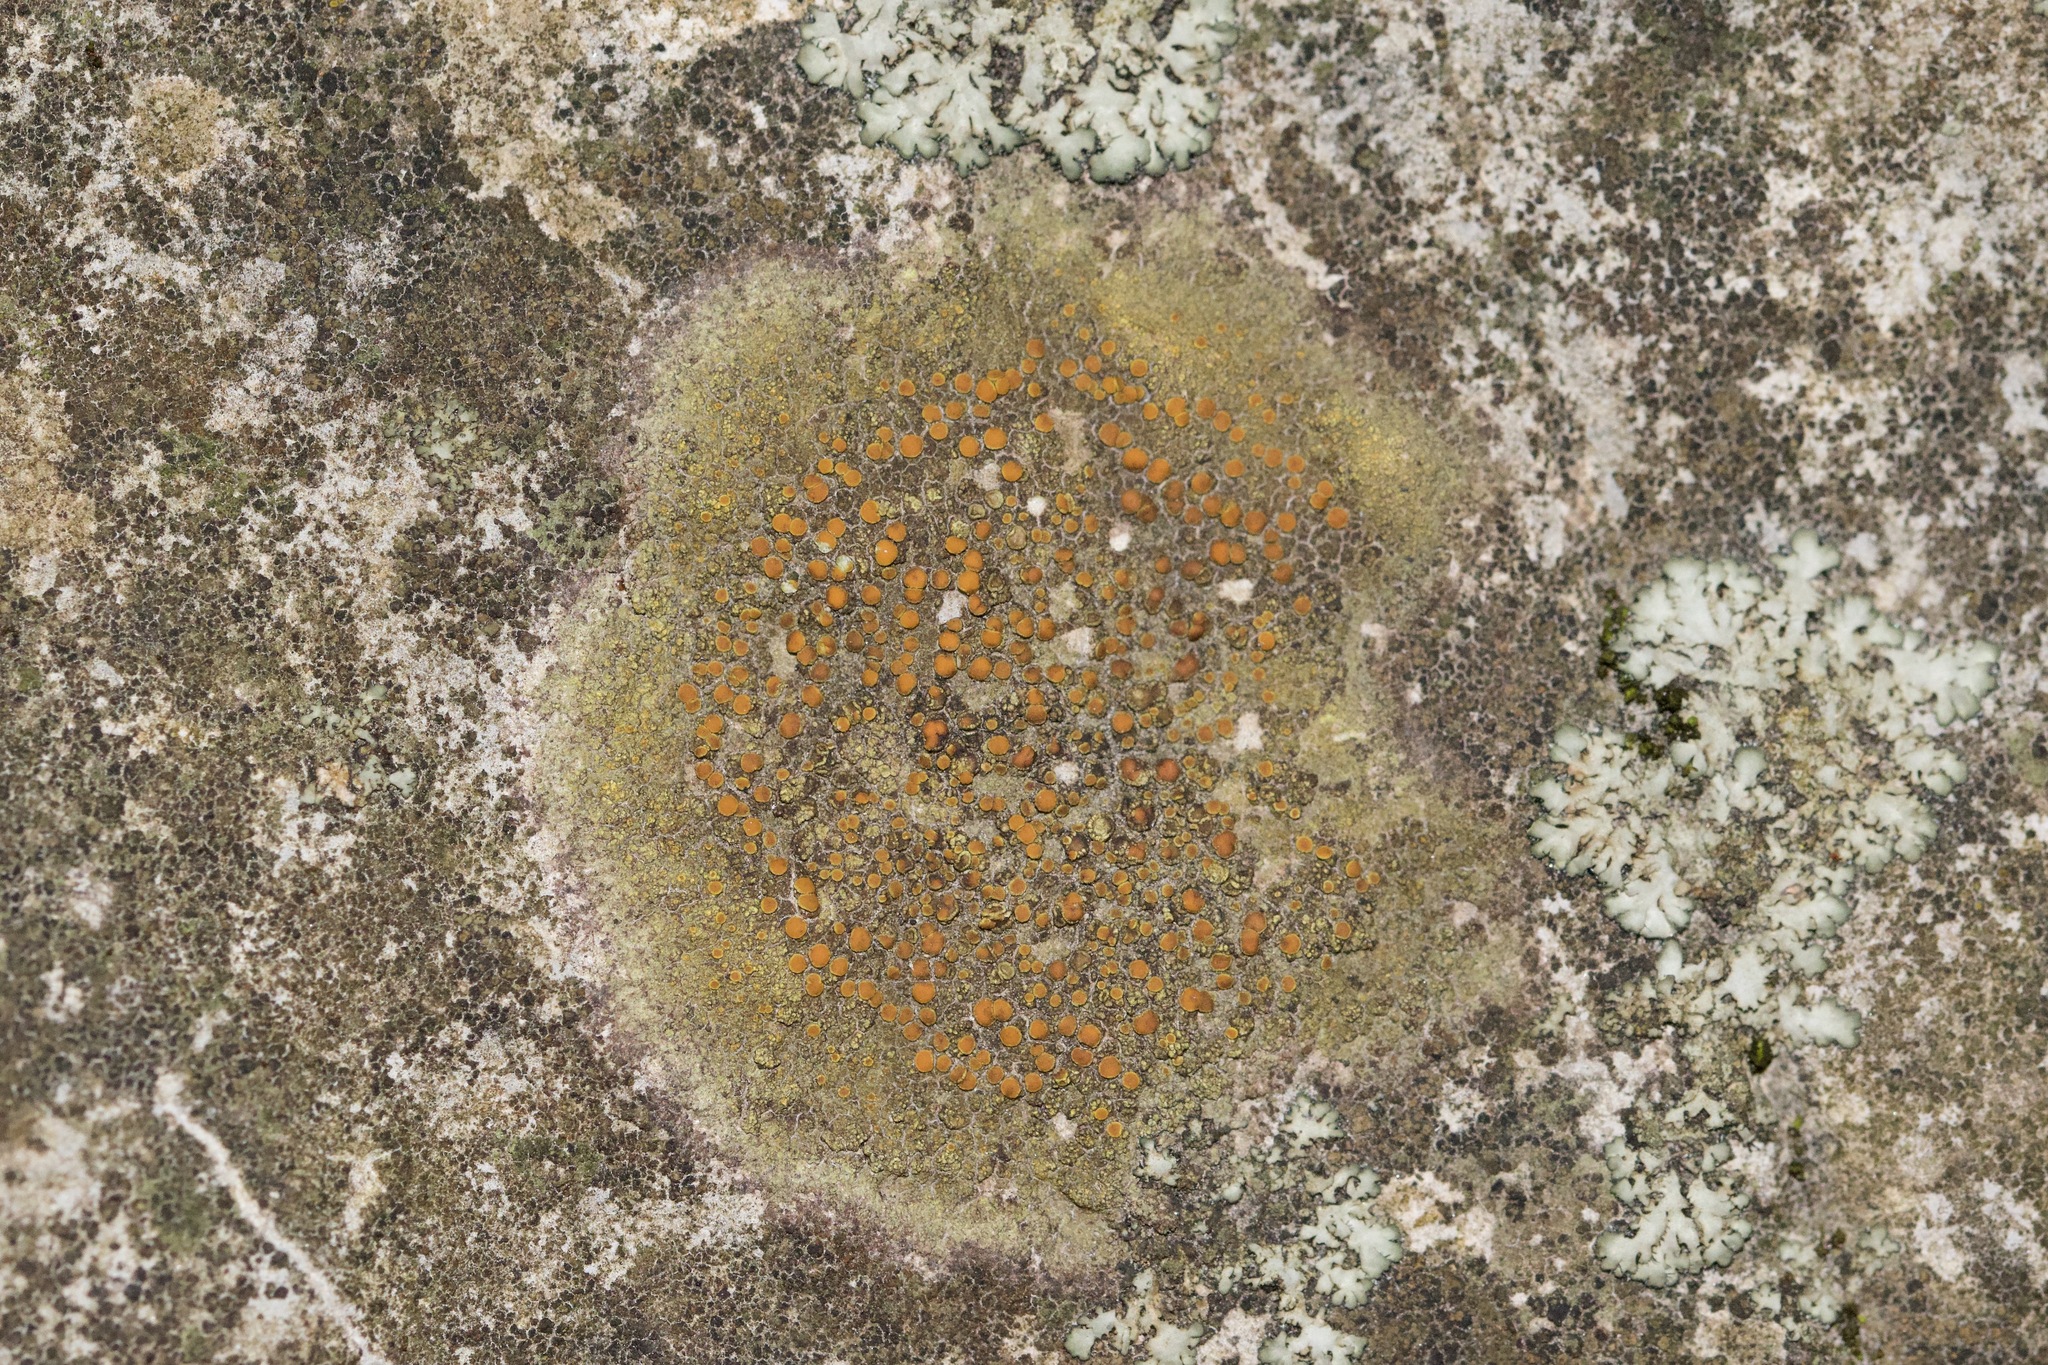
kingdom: Fungi
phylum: Ascomycota
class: Lecanoromycetes
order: Teloschistales
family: Teloschistaceae
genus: Gyalolechia
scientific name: Gyalolechia flavovirescens
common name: Sulphur firedot
